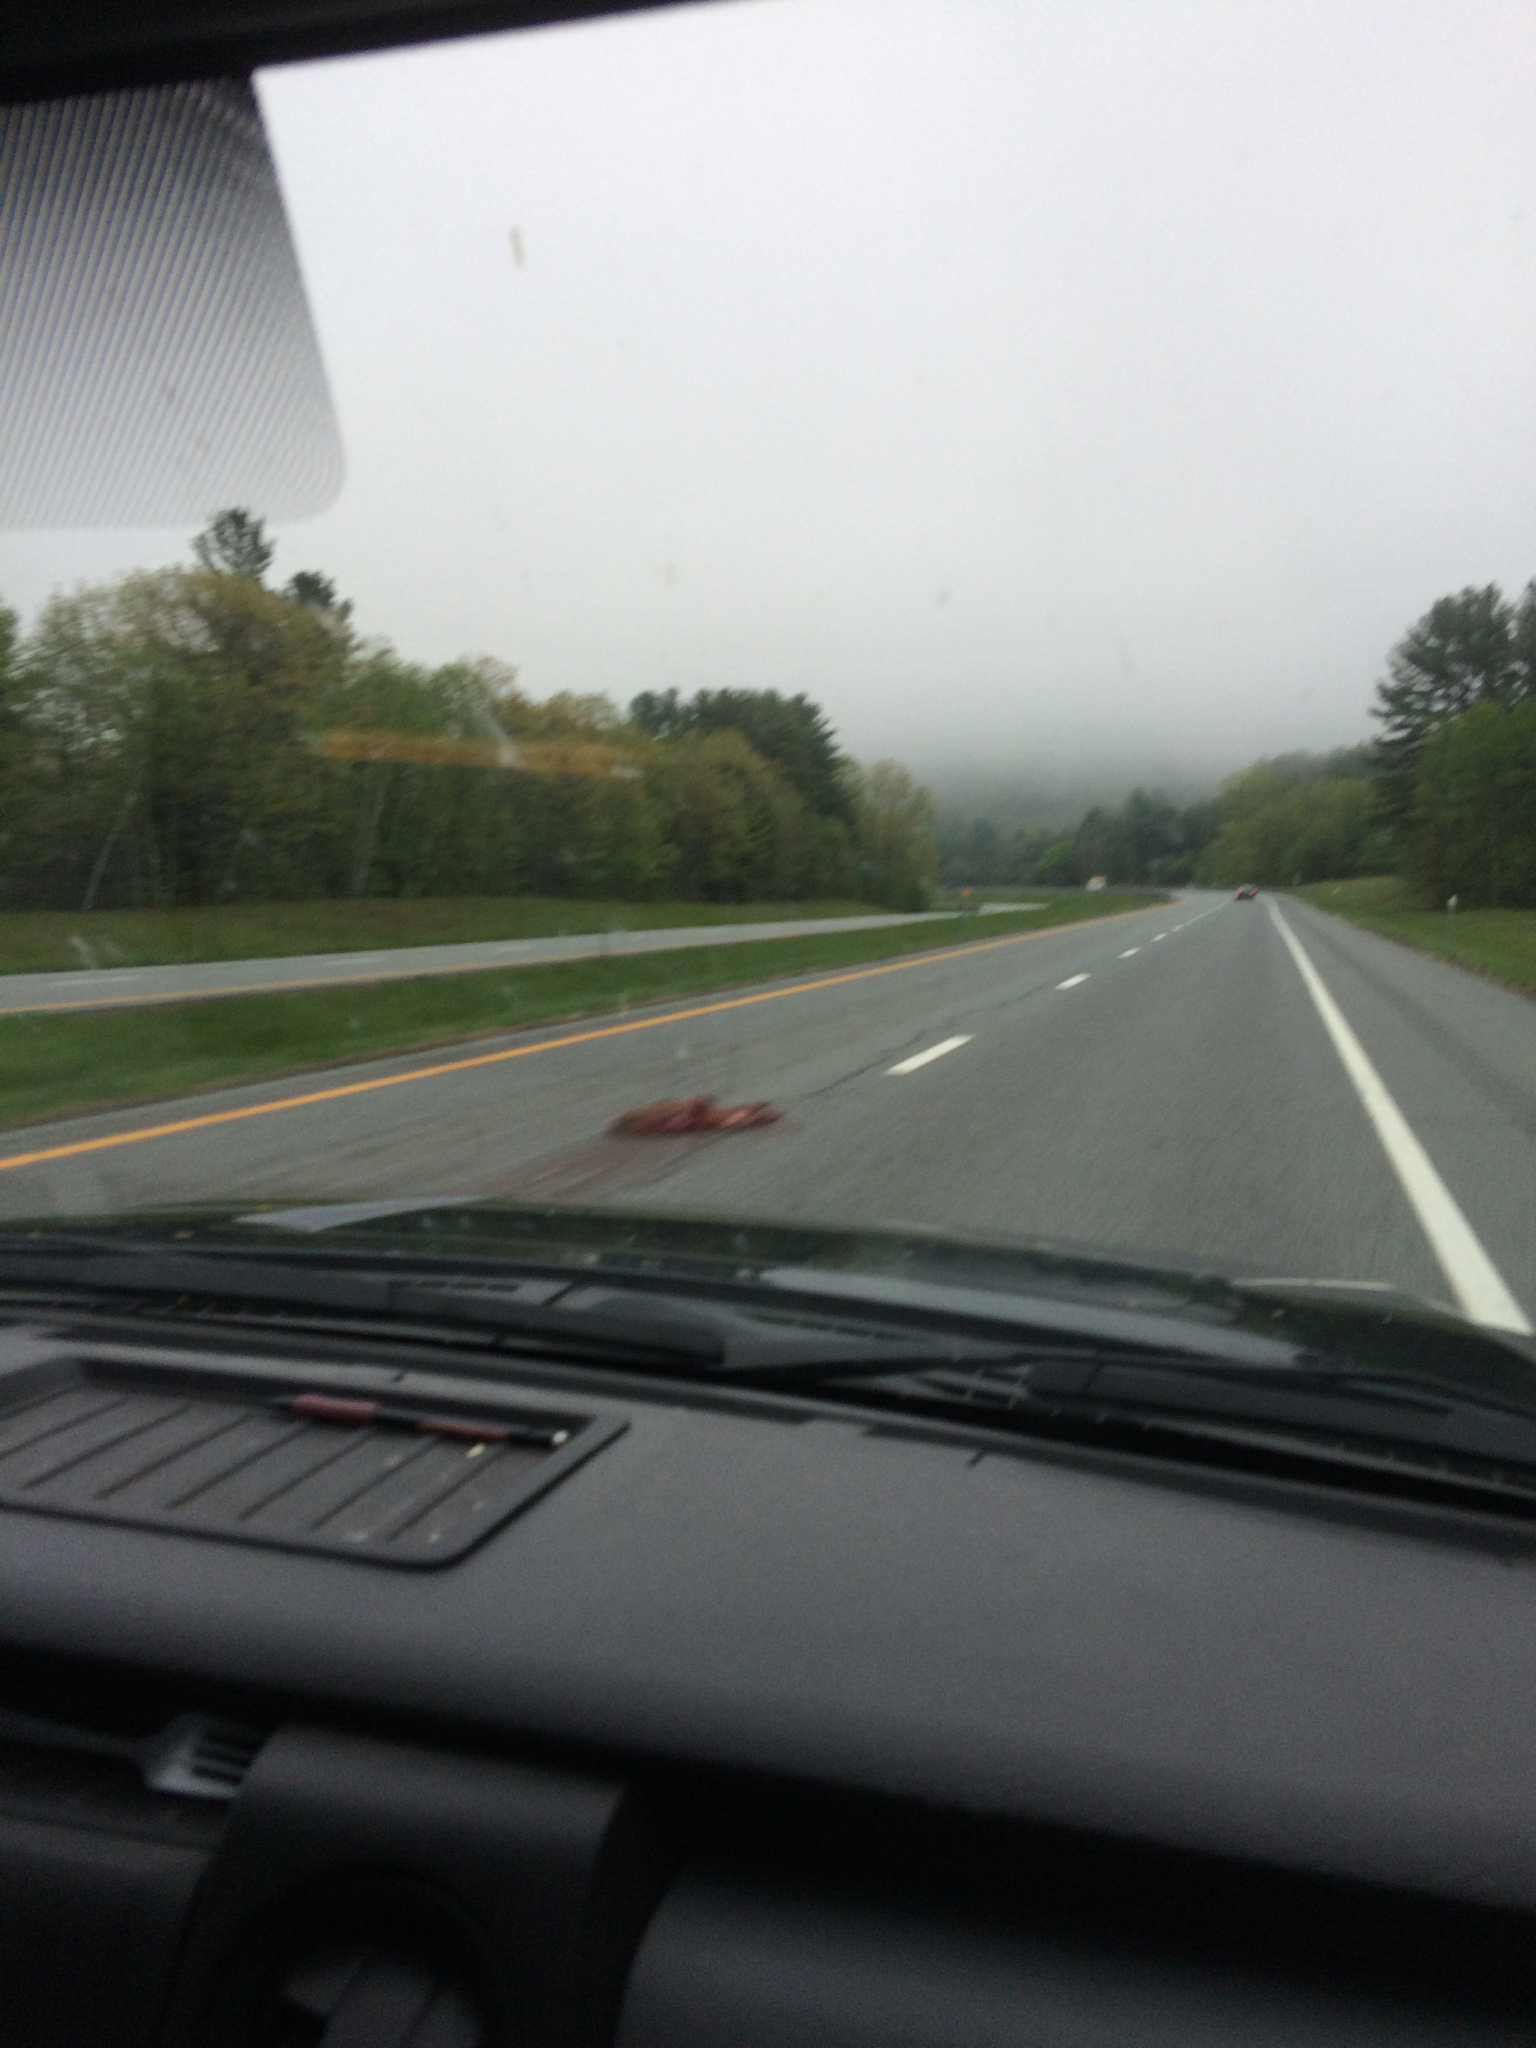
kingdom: Animalia
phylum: Chordata
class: Mammalia
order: Artiodactyla
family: Cervidae
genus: Odocoileus
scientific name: Odocoileus virginianus
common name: White-tailed deer
